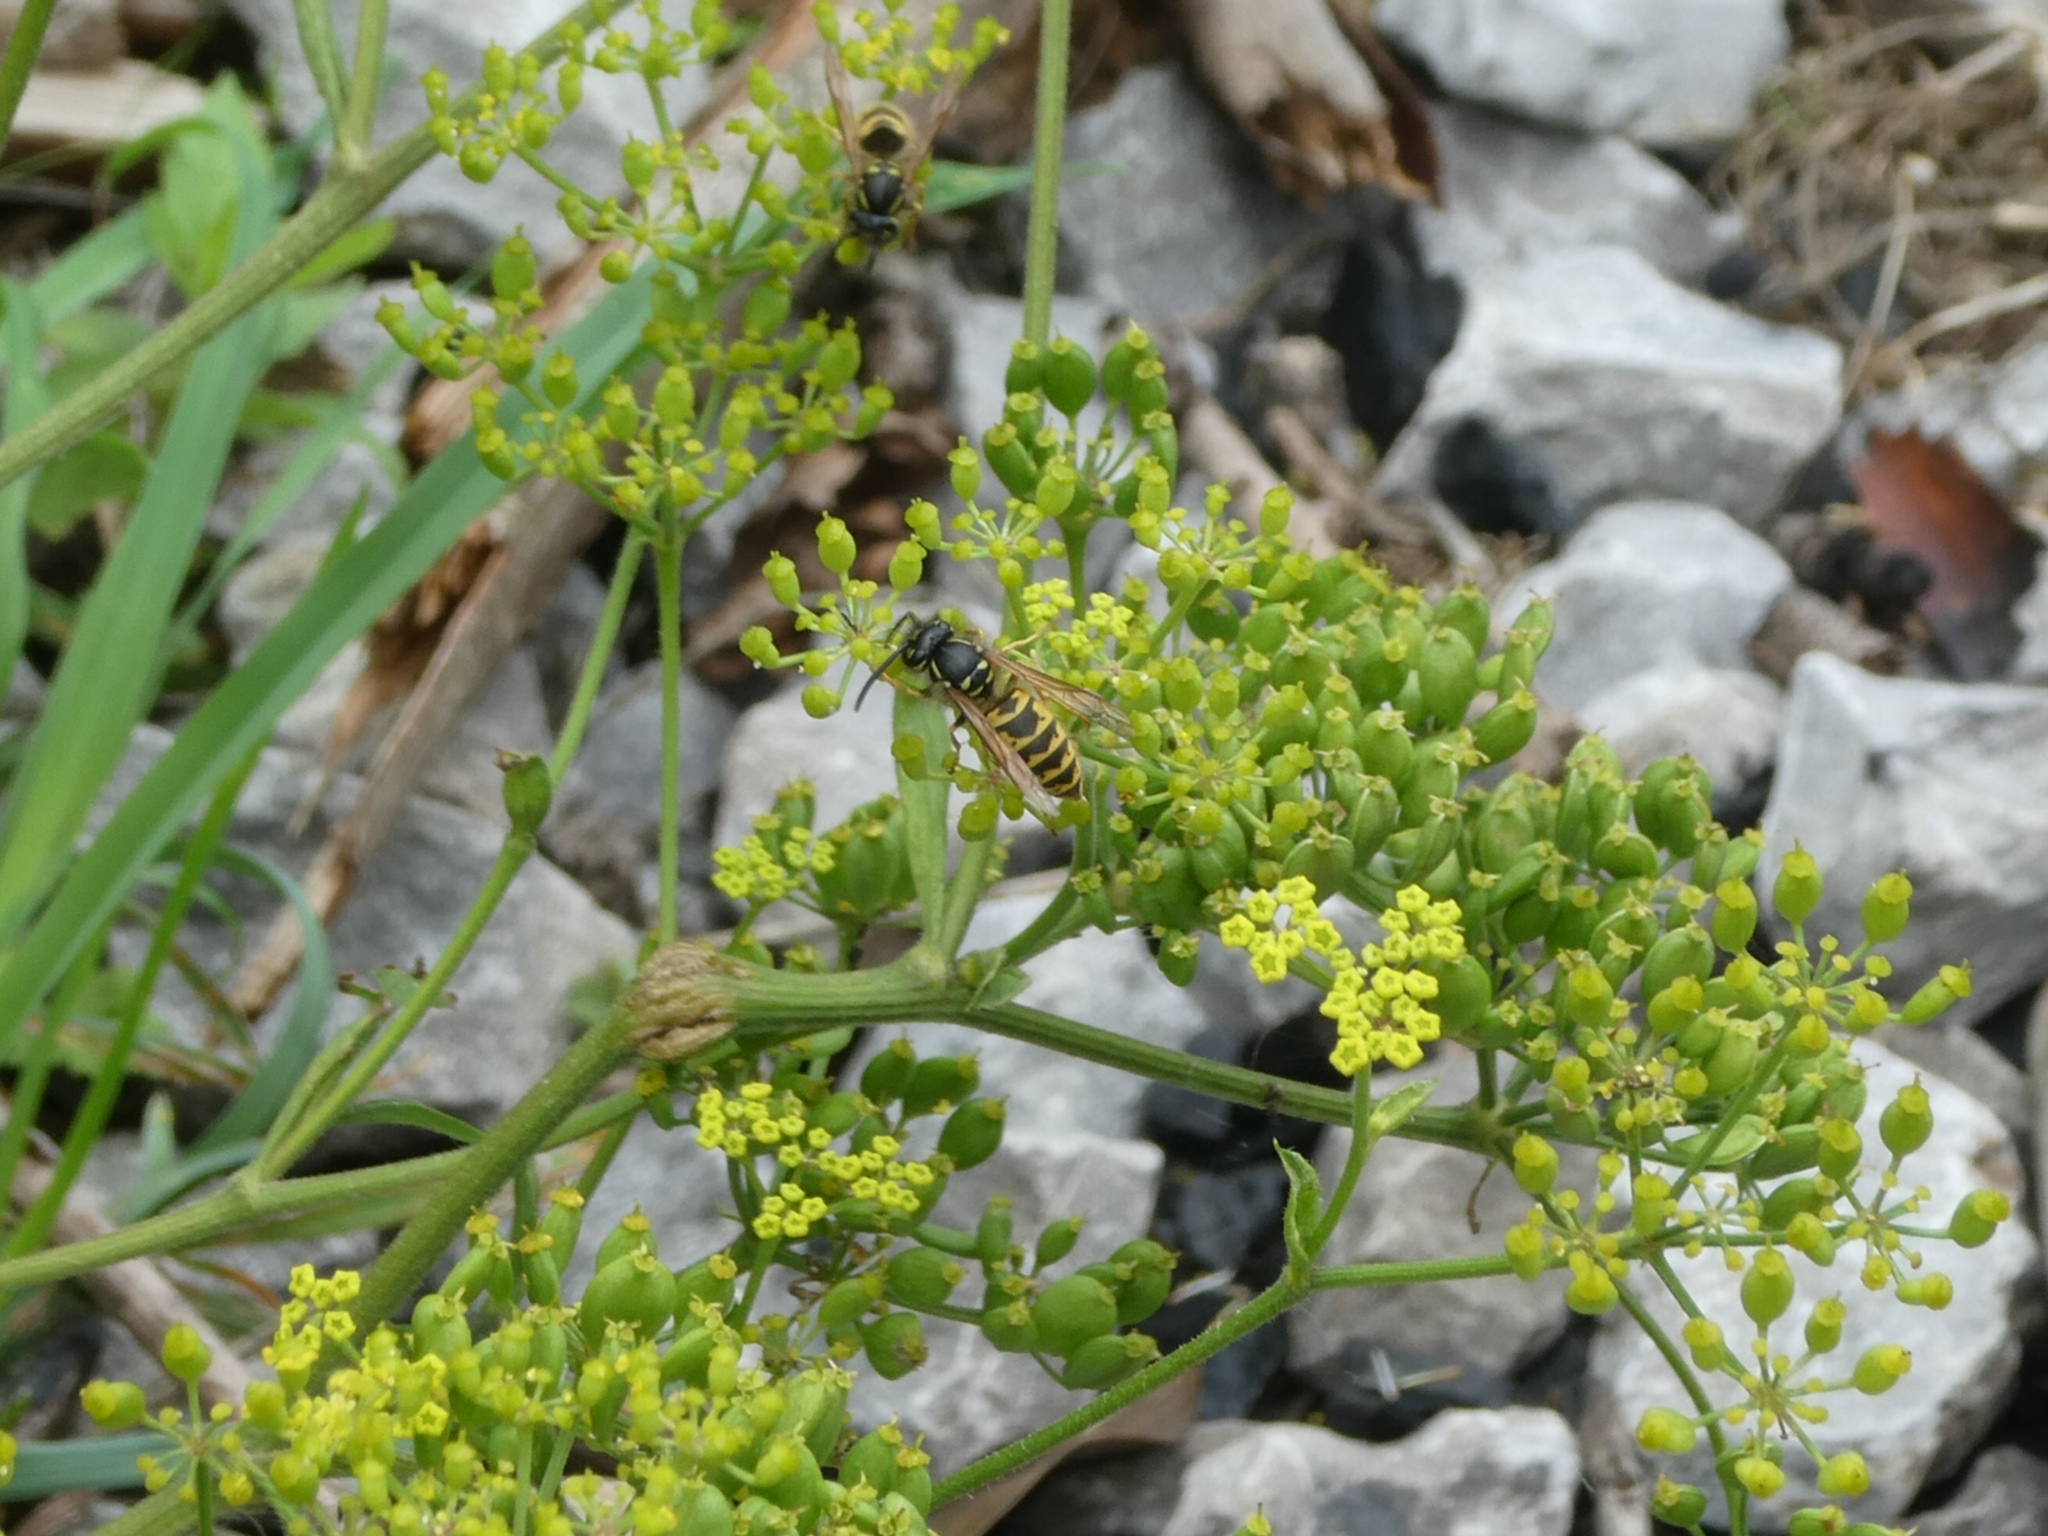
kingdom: Animalia
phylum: Arthropoda
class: Insecta
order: Hymenoptera
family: Vespidae
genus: Vespula
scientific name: Vespula vulgaris
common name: Common wasp
